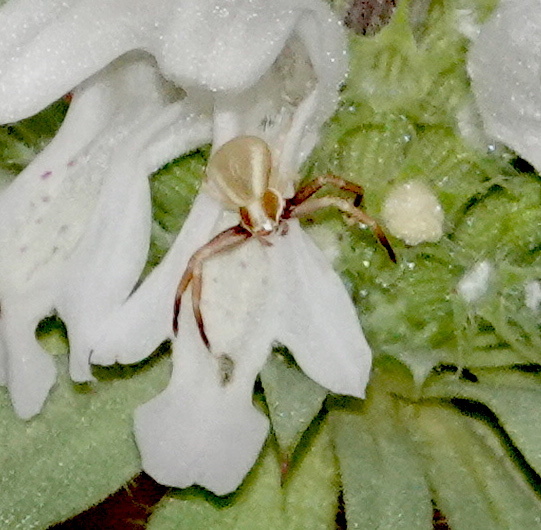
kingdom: Animalia
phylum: Arthropoda
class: Arachnida
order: Araneae
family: Thomisidae
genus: Misumenoides
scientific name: Misumenoides formosipes
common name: White-banded crab spider
